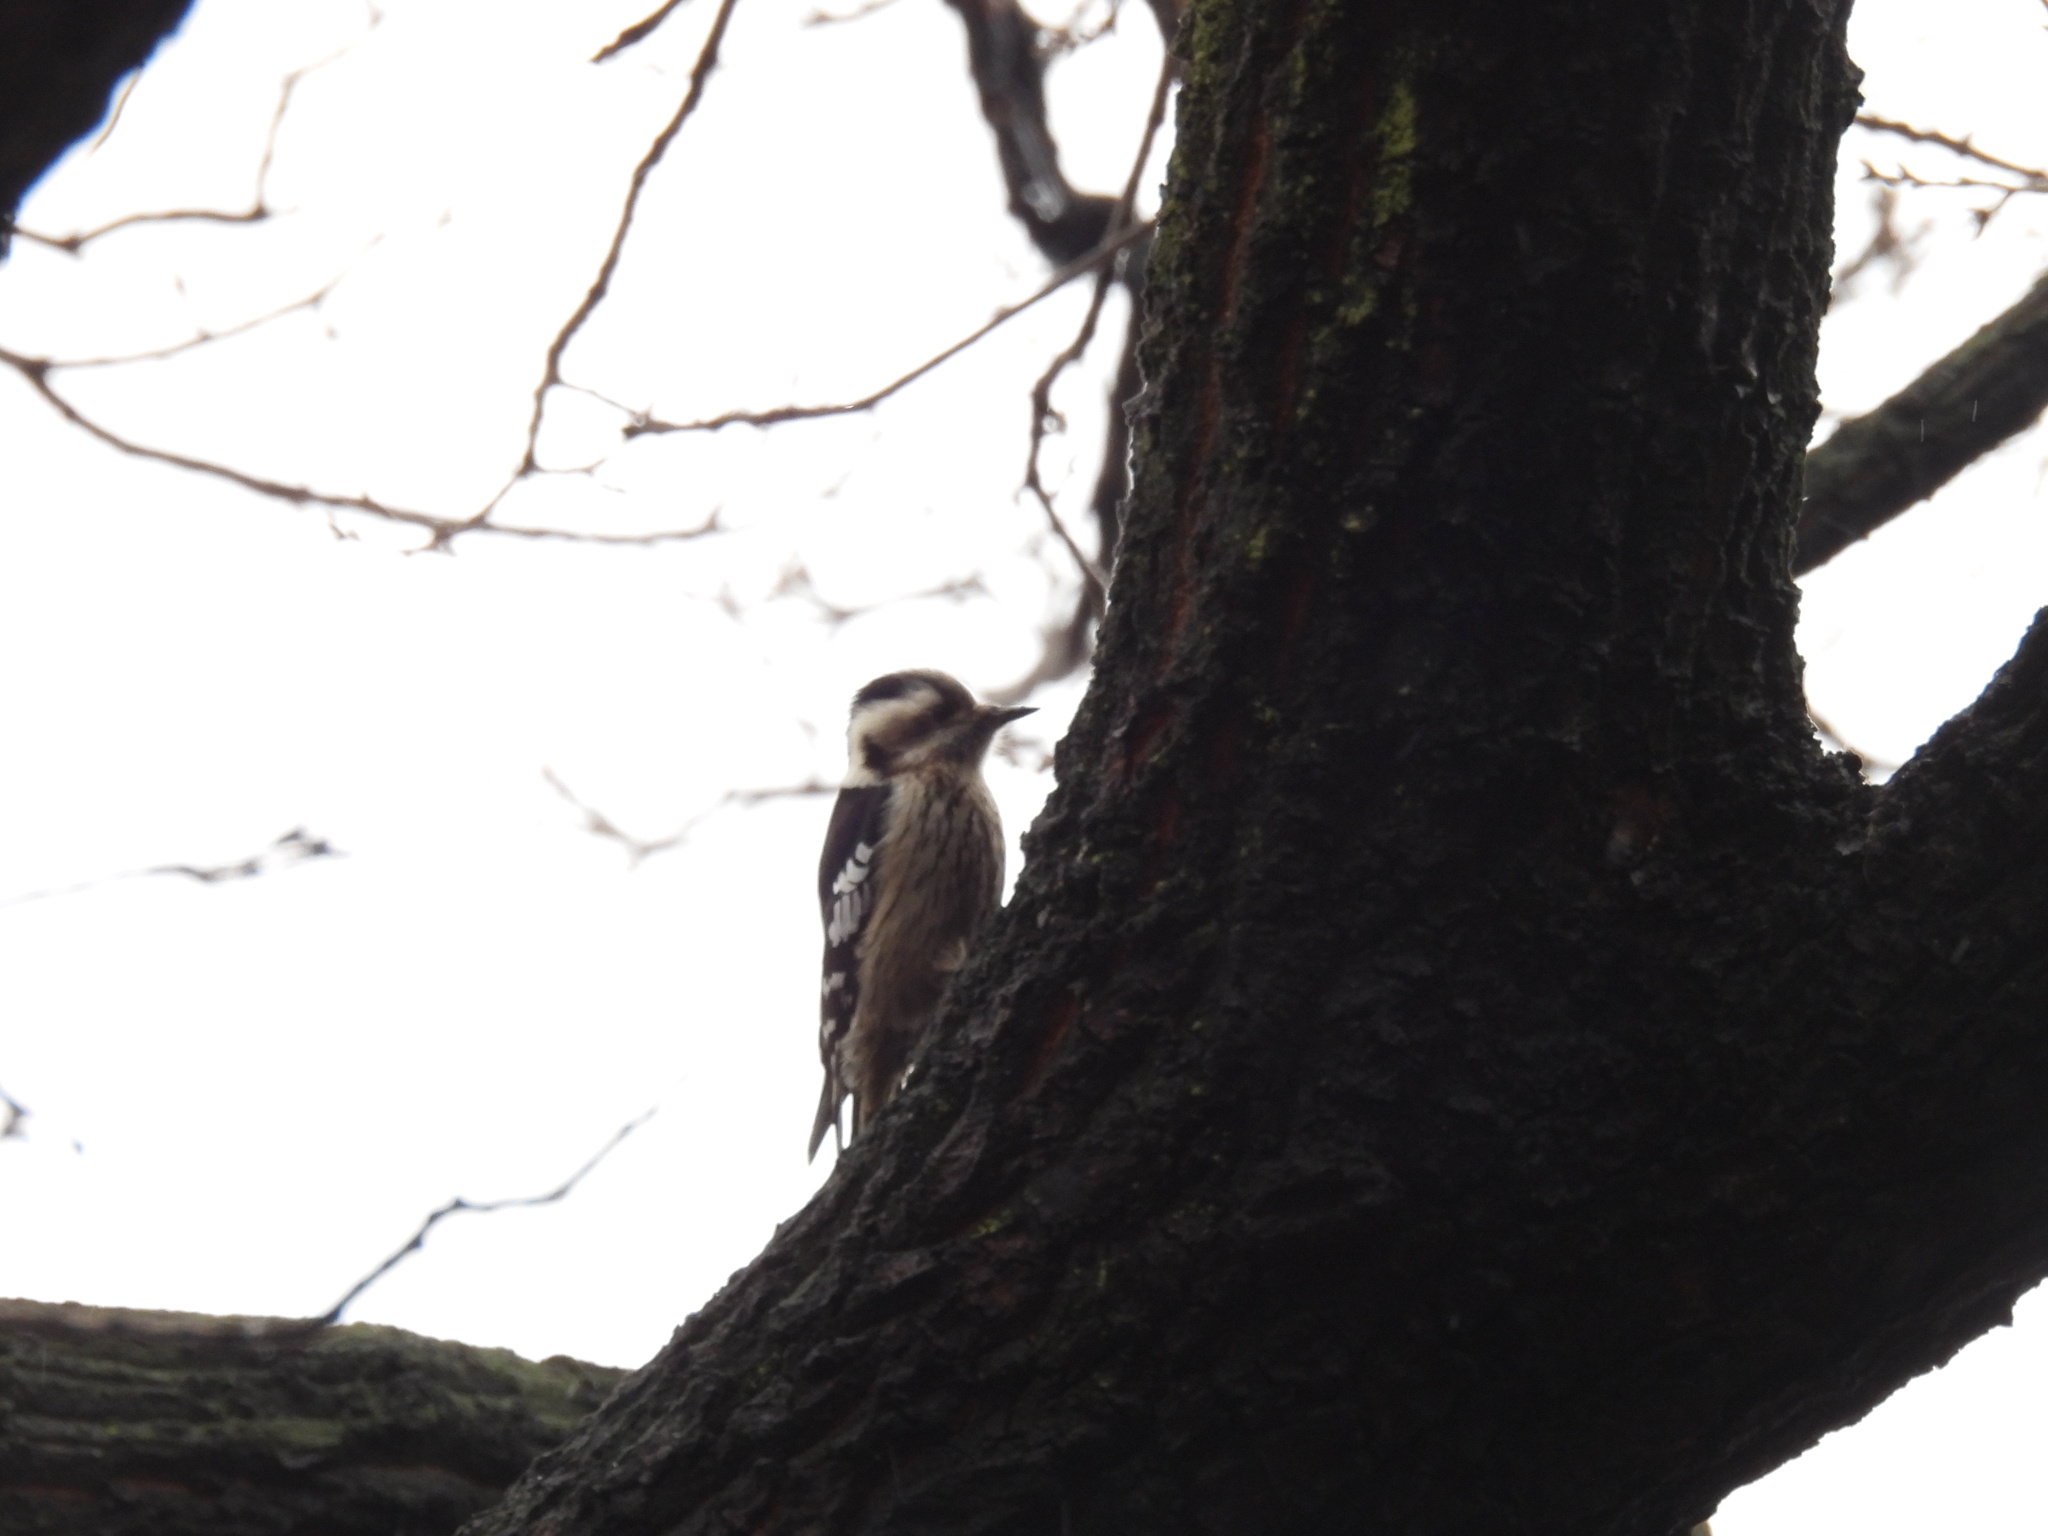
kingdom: Animalia
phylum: Chordata
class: Aves
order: Piciformes
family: Picidae
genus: Yungipicus
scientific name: Yungipicus canicapillus
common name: Grey-capped pygmy woodpecker
